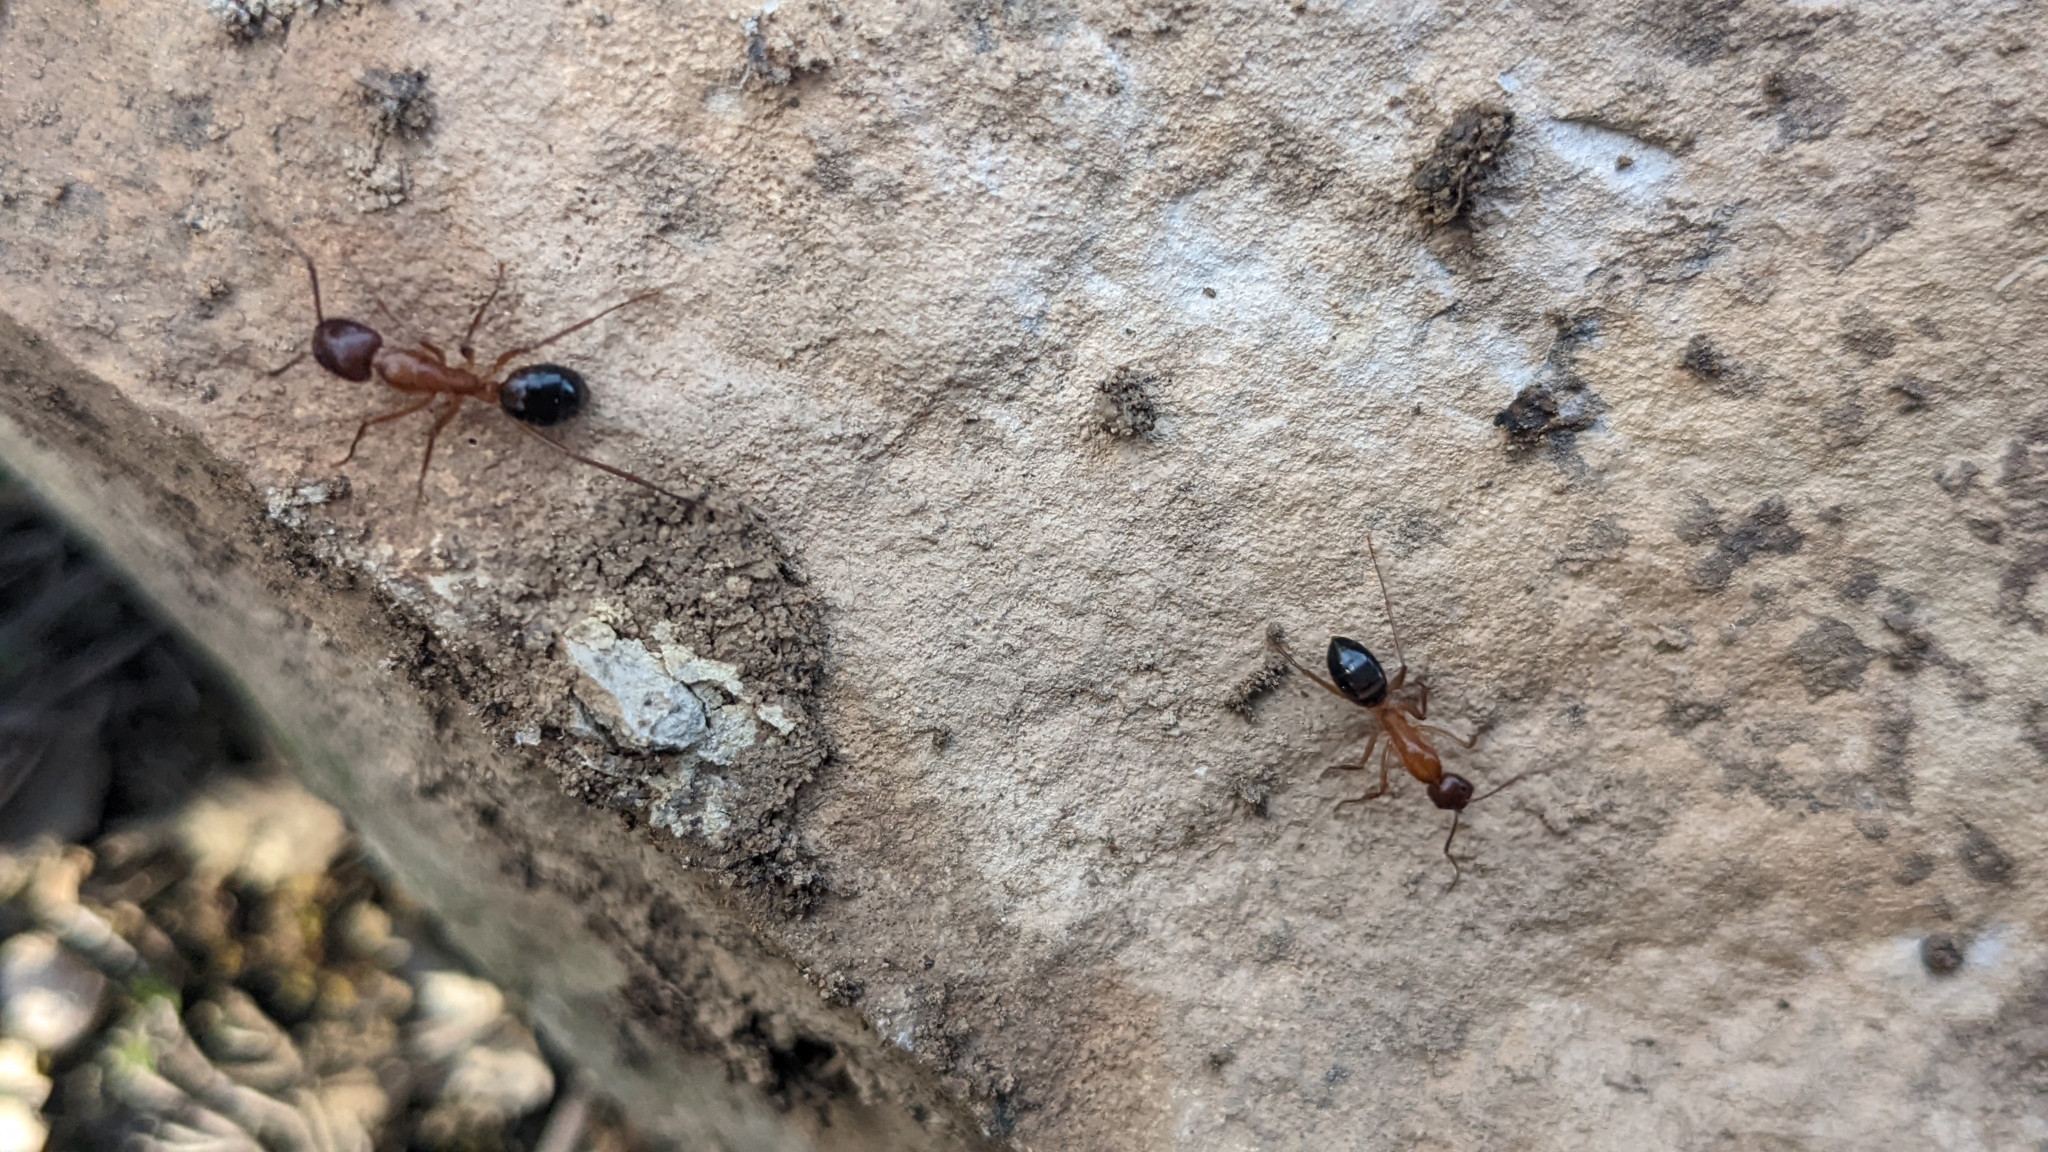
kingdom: Animalia
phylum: Arthropoda
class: Insecta
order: Hymenoptera
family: Formicidae
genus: Camponotus
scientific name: Camponotus pilicornis
